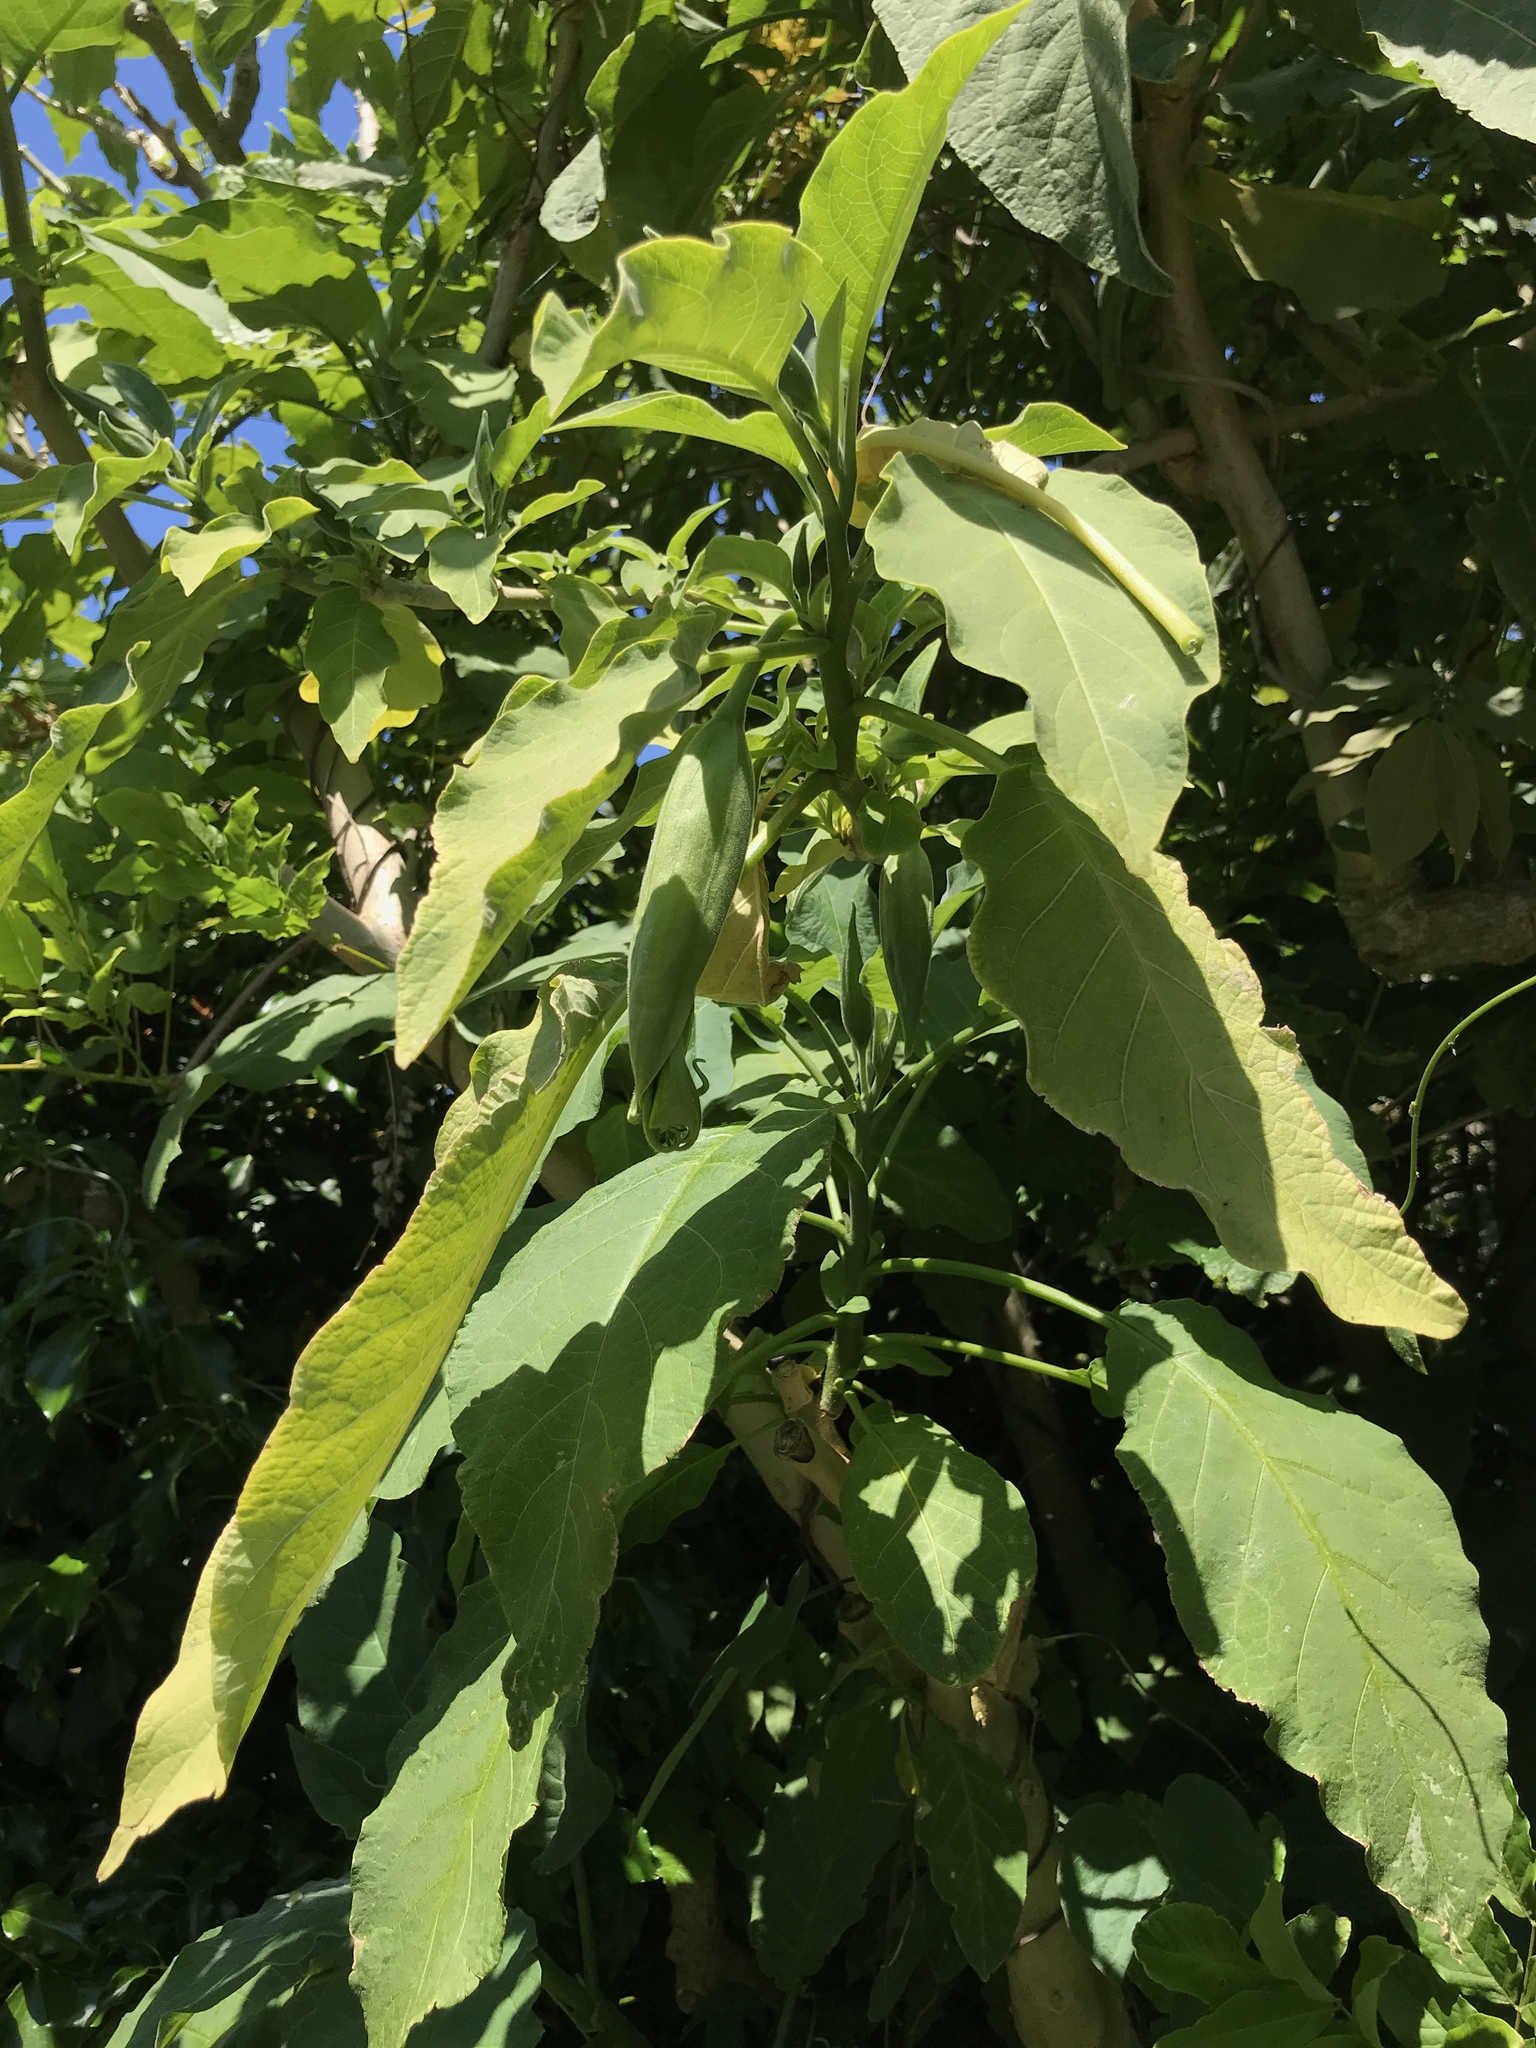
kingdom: Plantae
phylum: Tracheophyta
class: Magnoliopsida
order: Solanales
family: Solanaceae
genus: Brugmansia
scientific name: Brugmansia arborea
